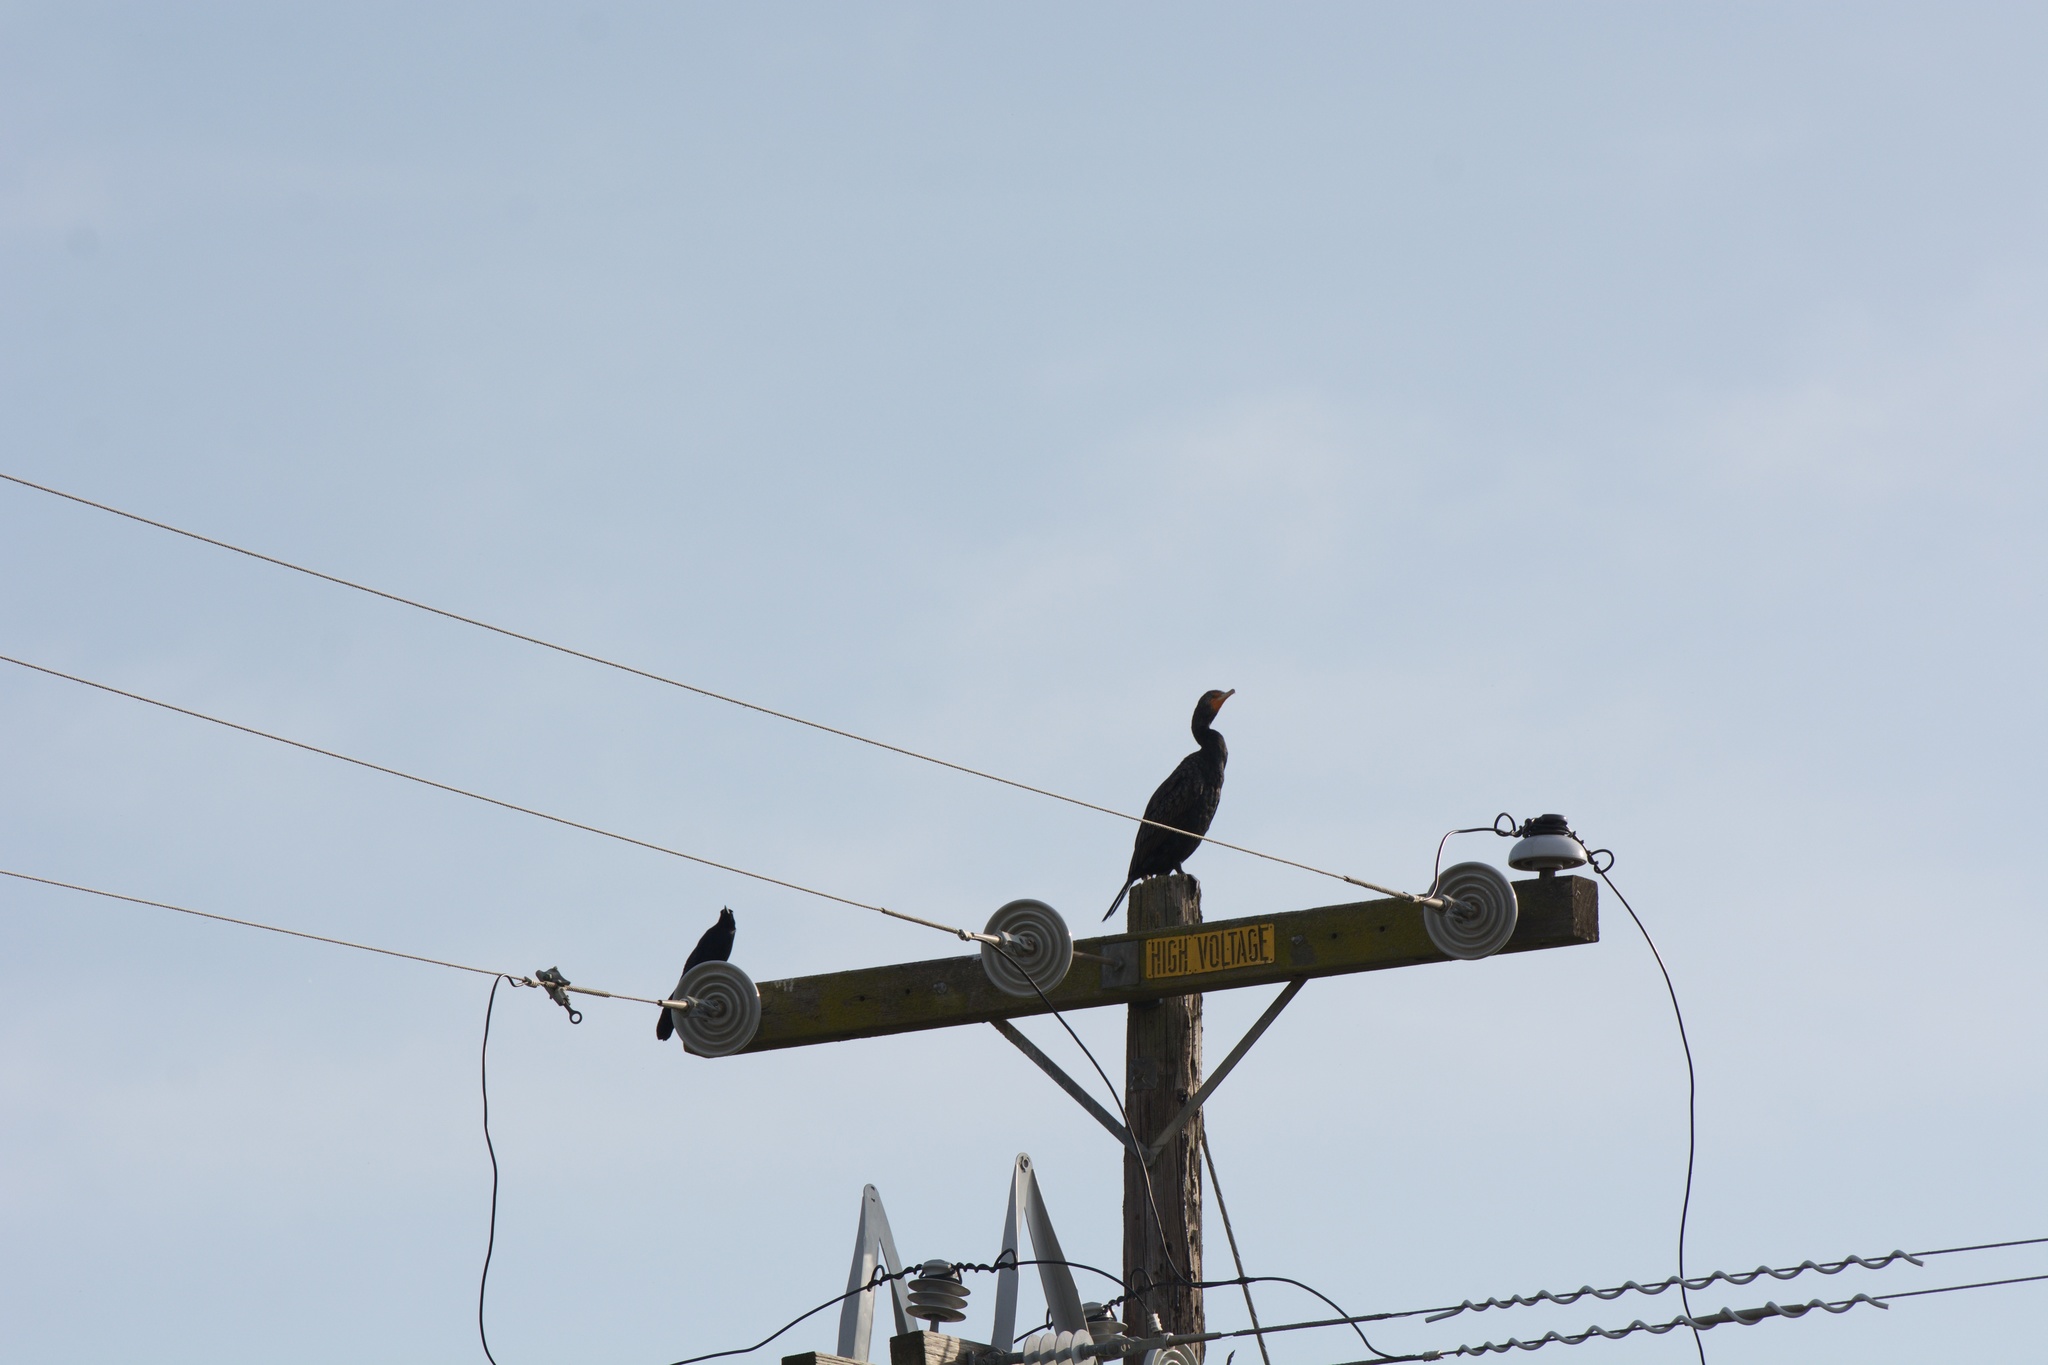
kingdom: Animalia
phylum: Chordata
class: Aves
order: Suliformes
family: Phalacrocoracidae
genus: Phalacrocorax
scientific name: Phalacrocorax auritus
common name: Double-crested cormorant
